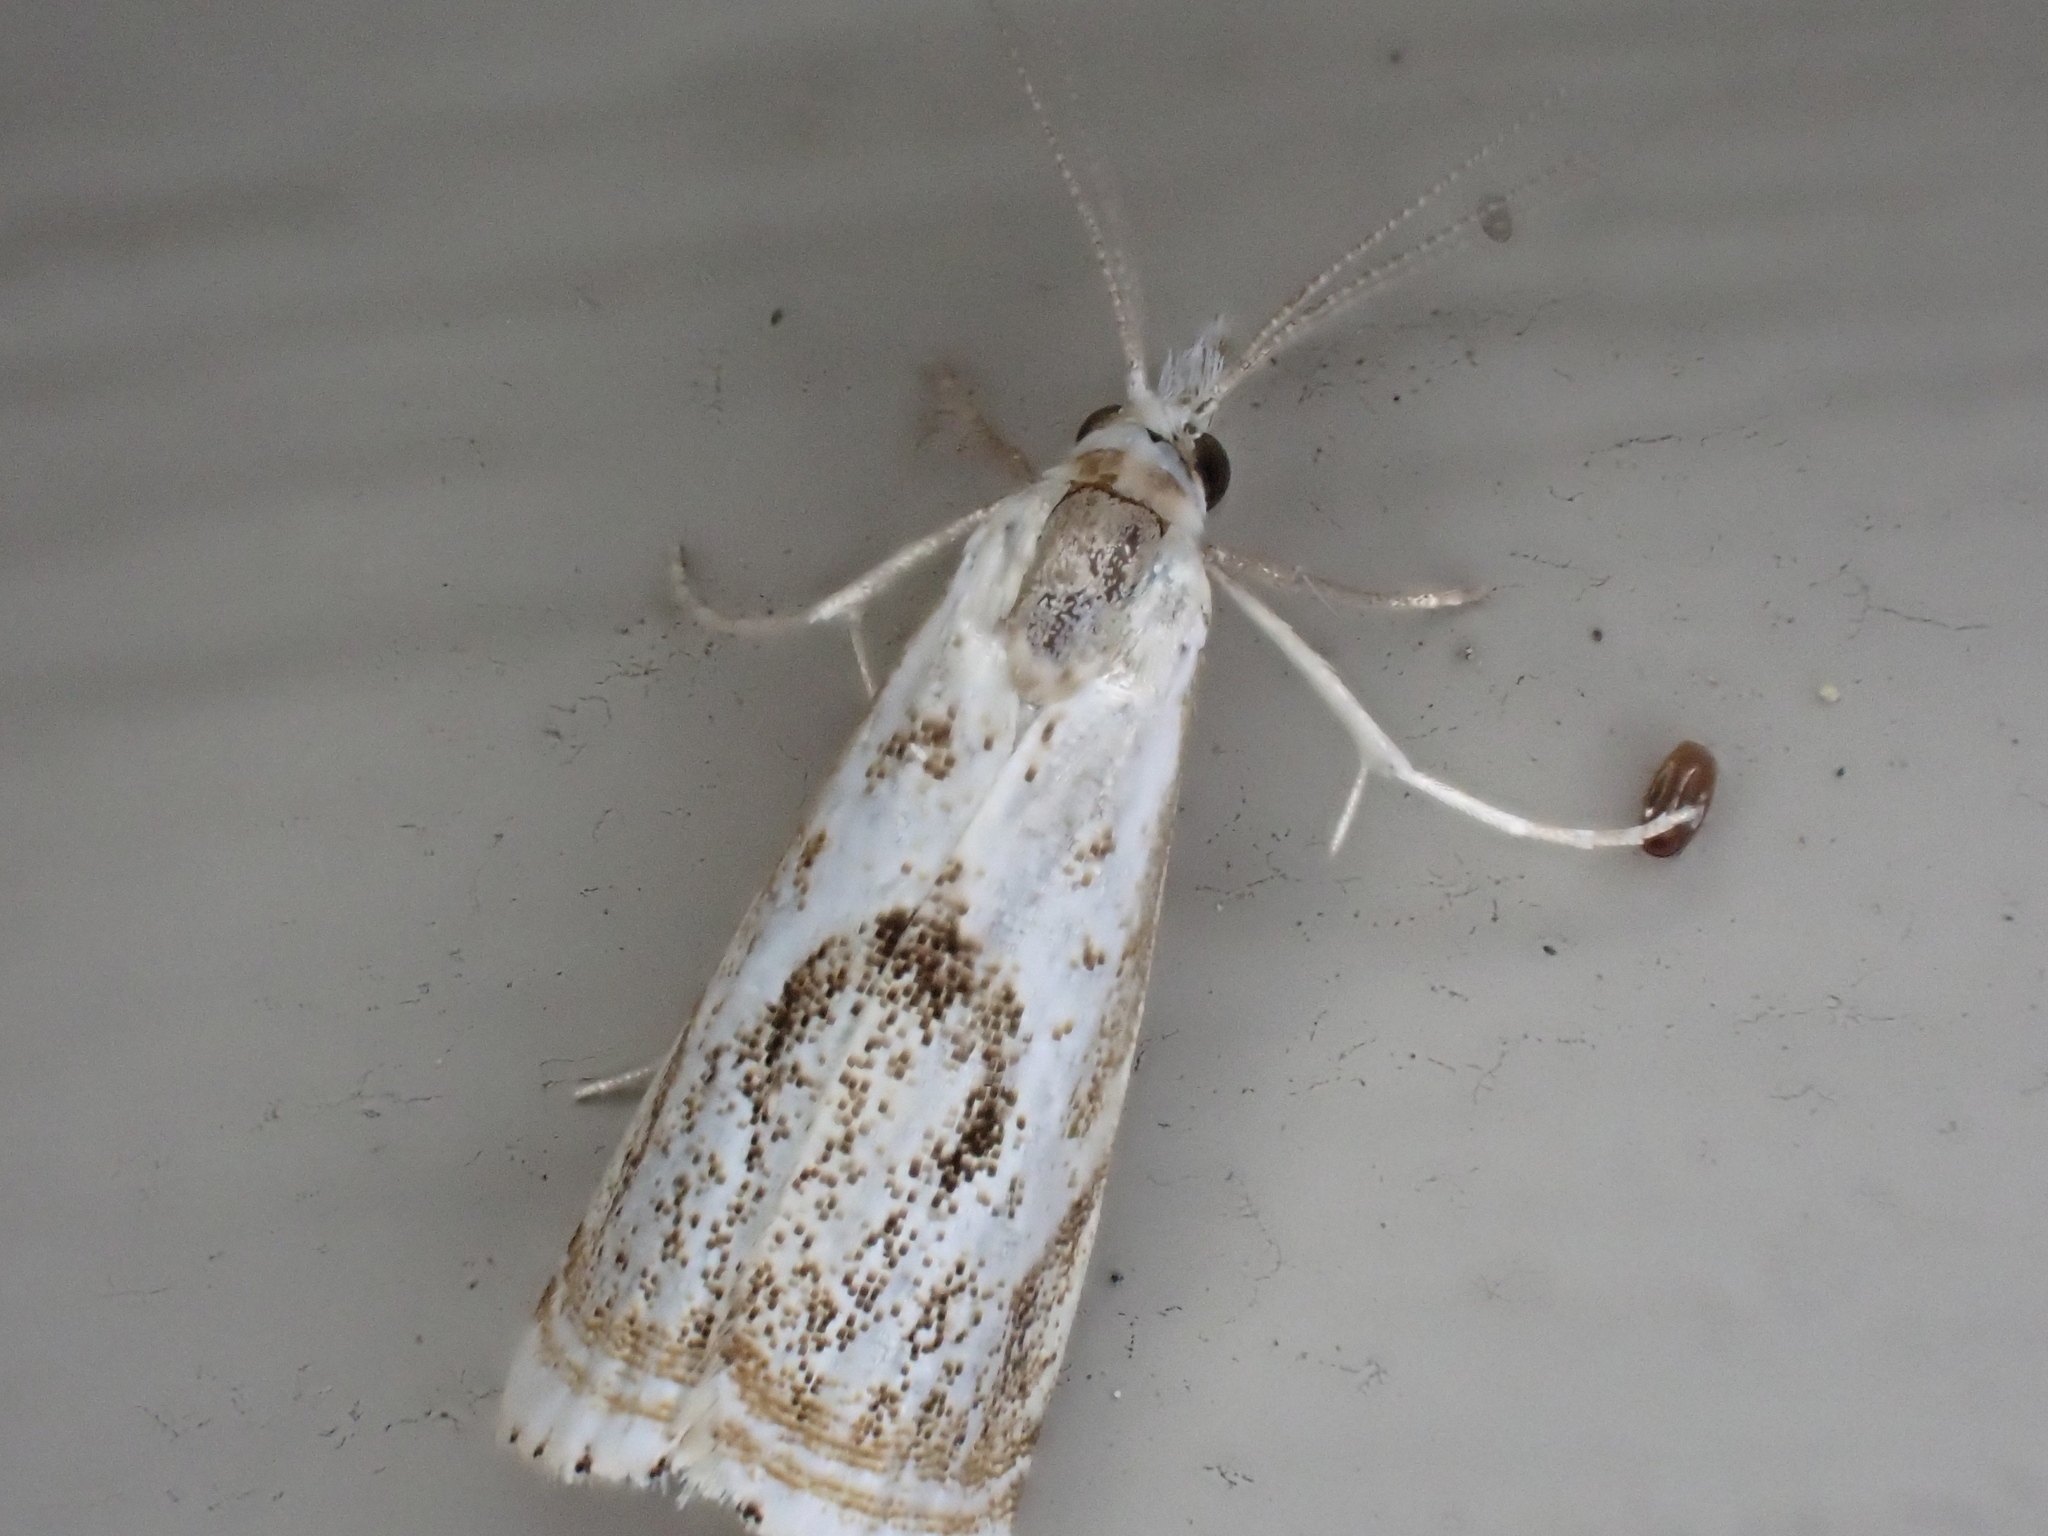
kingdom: Animalia
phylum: Arthropoda
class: Insecta
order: Lepidoptera
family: Crambidae
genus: Microcrambus
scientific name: Microcrambus elegans
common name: Elegant grass-veneer
